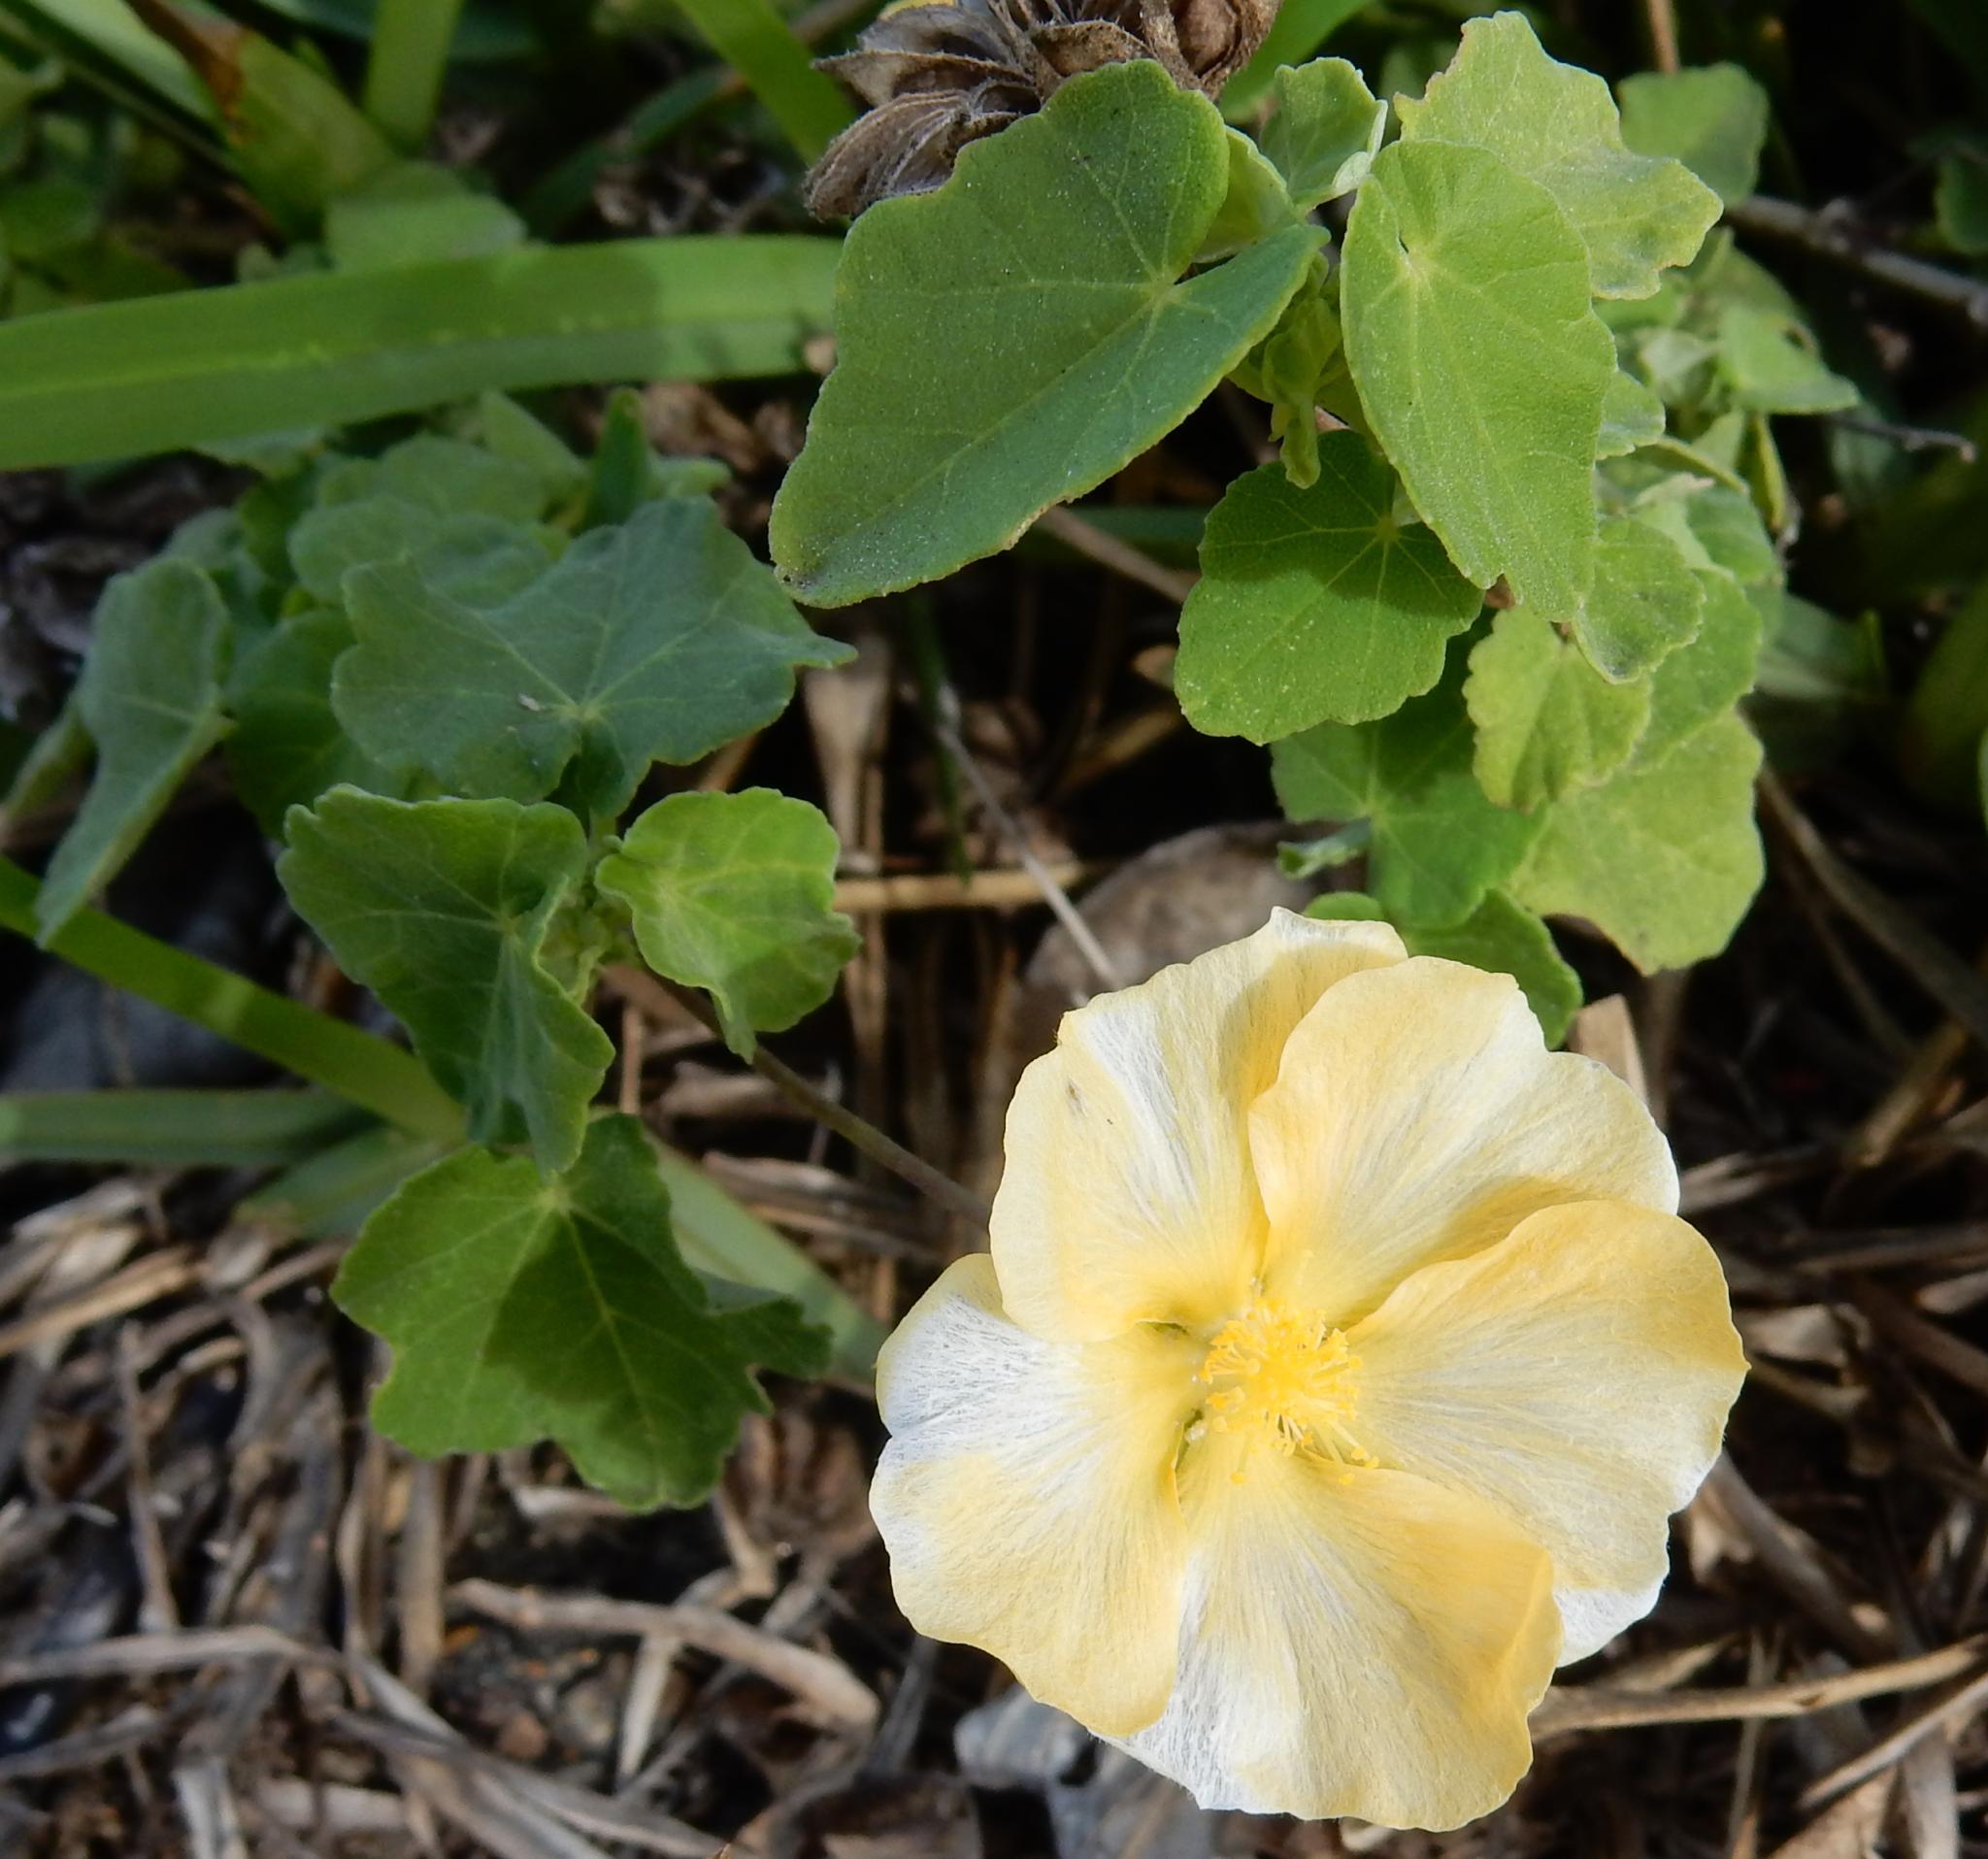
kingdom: Plantae
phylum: Tracheophyta
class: Magnoliopsida
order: Malvales
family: Malvaceae
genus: Abutilon
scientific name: Abutilon sonneratianum
